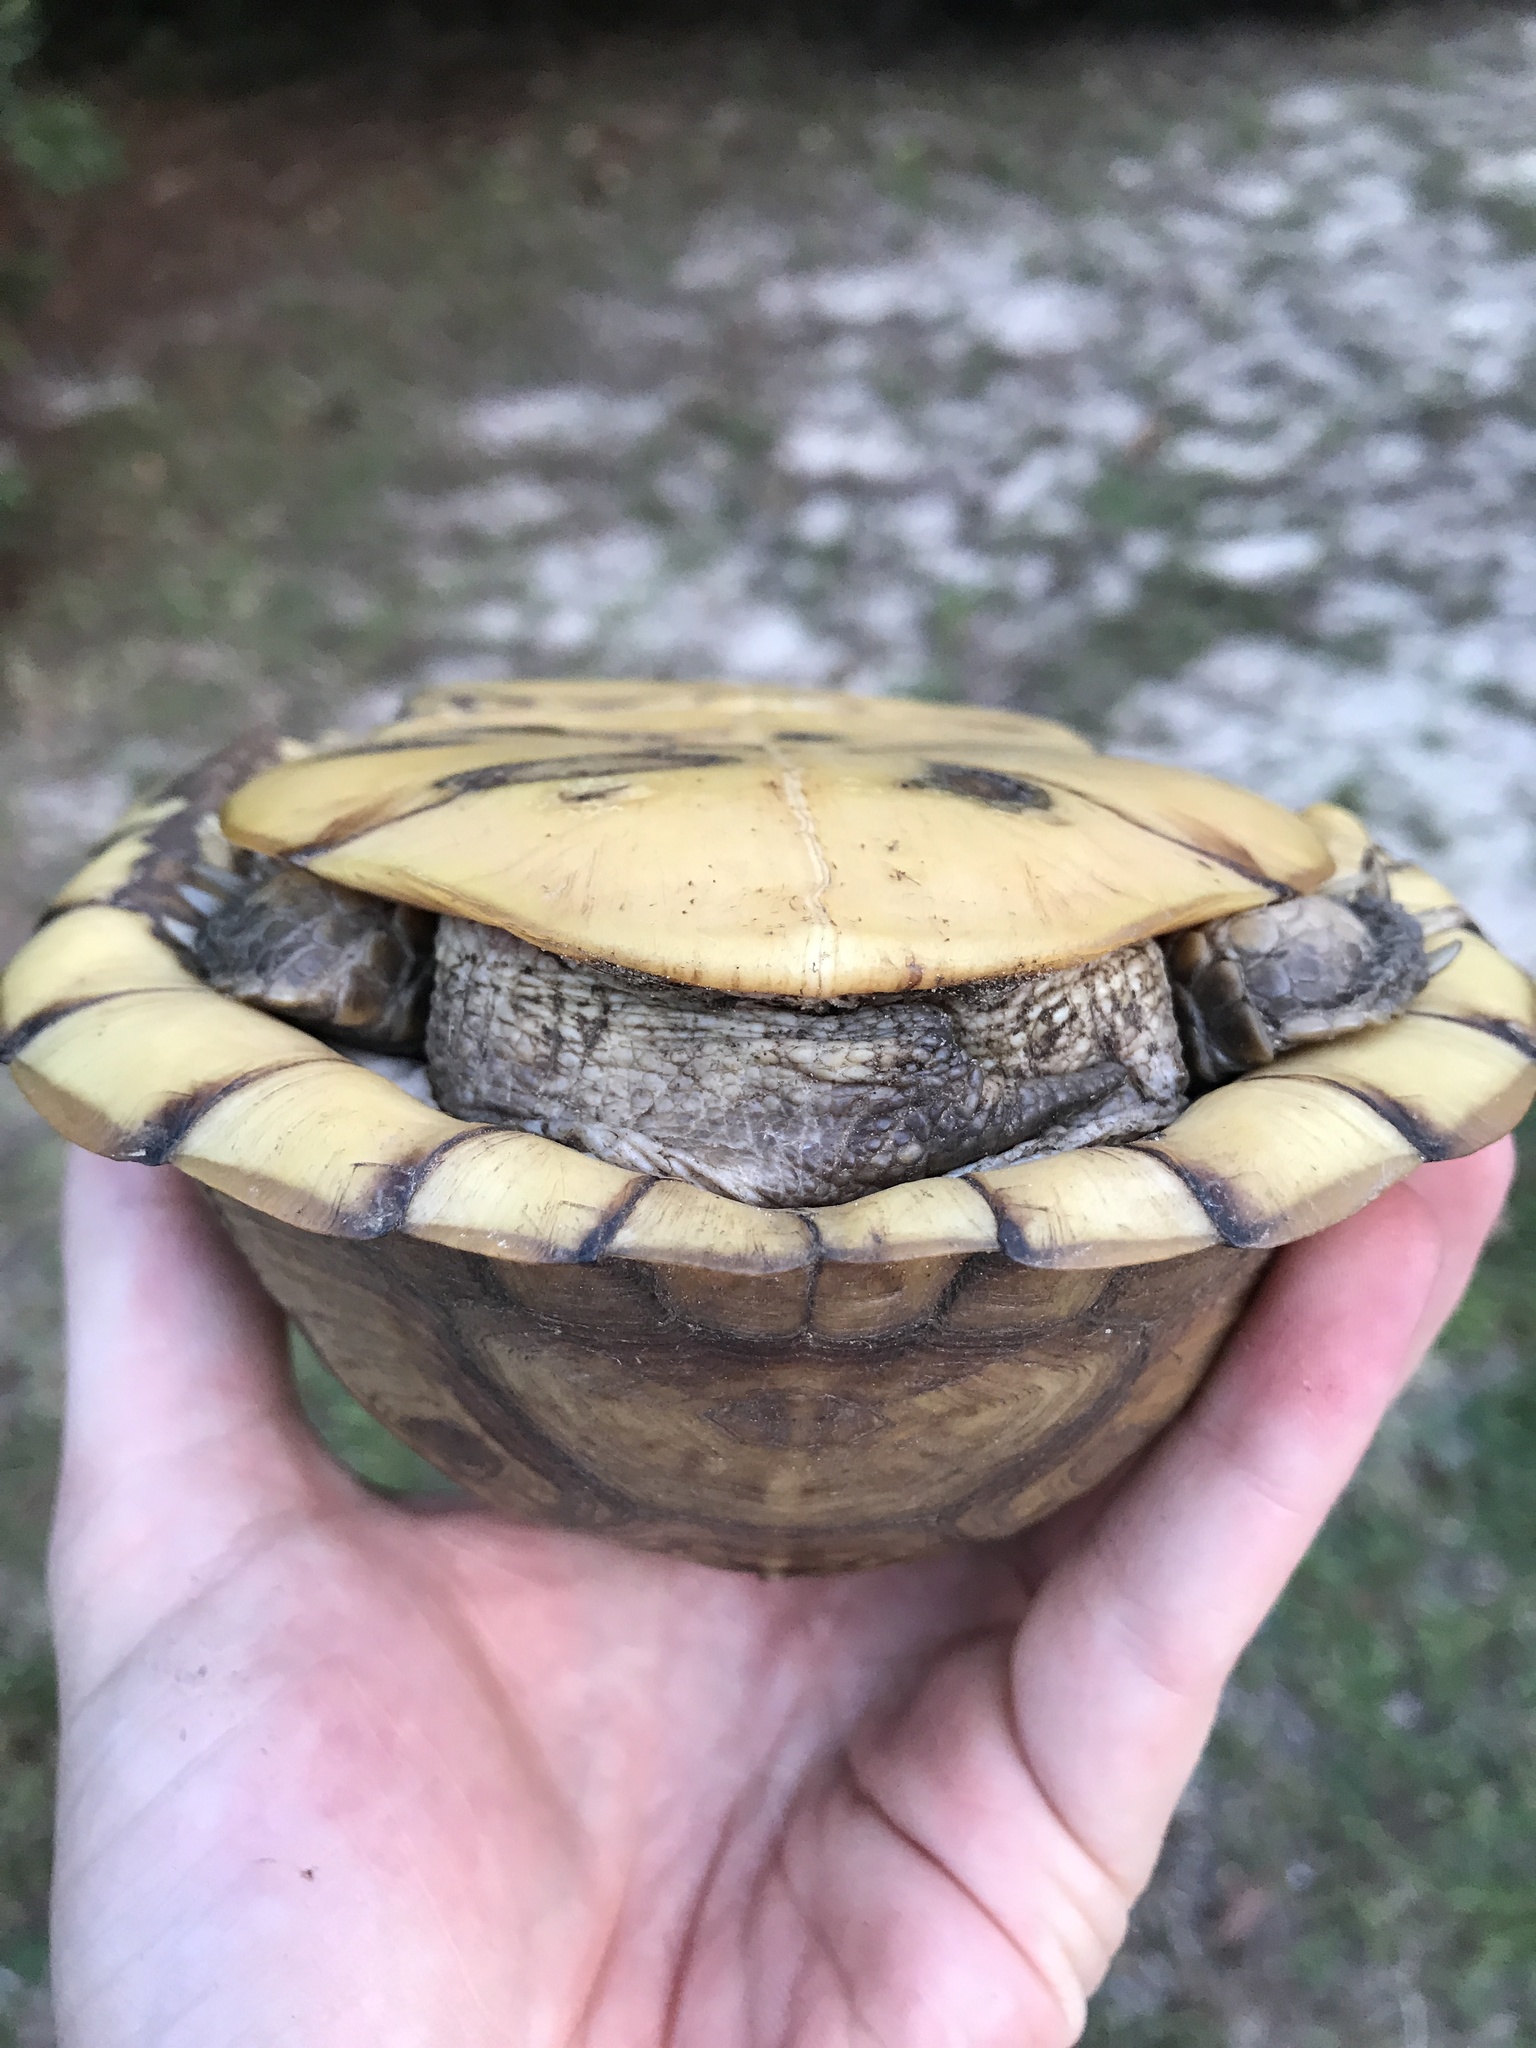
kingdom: Animalia
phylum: Chordata
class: Testudines
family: Emydidae
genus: Terrapene
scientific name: Terrapene carolina
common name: Common box turtle
